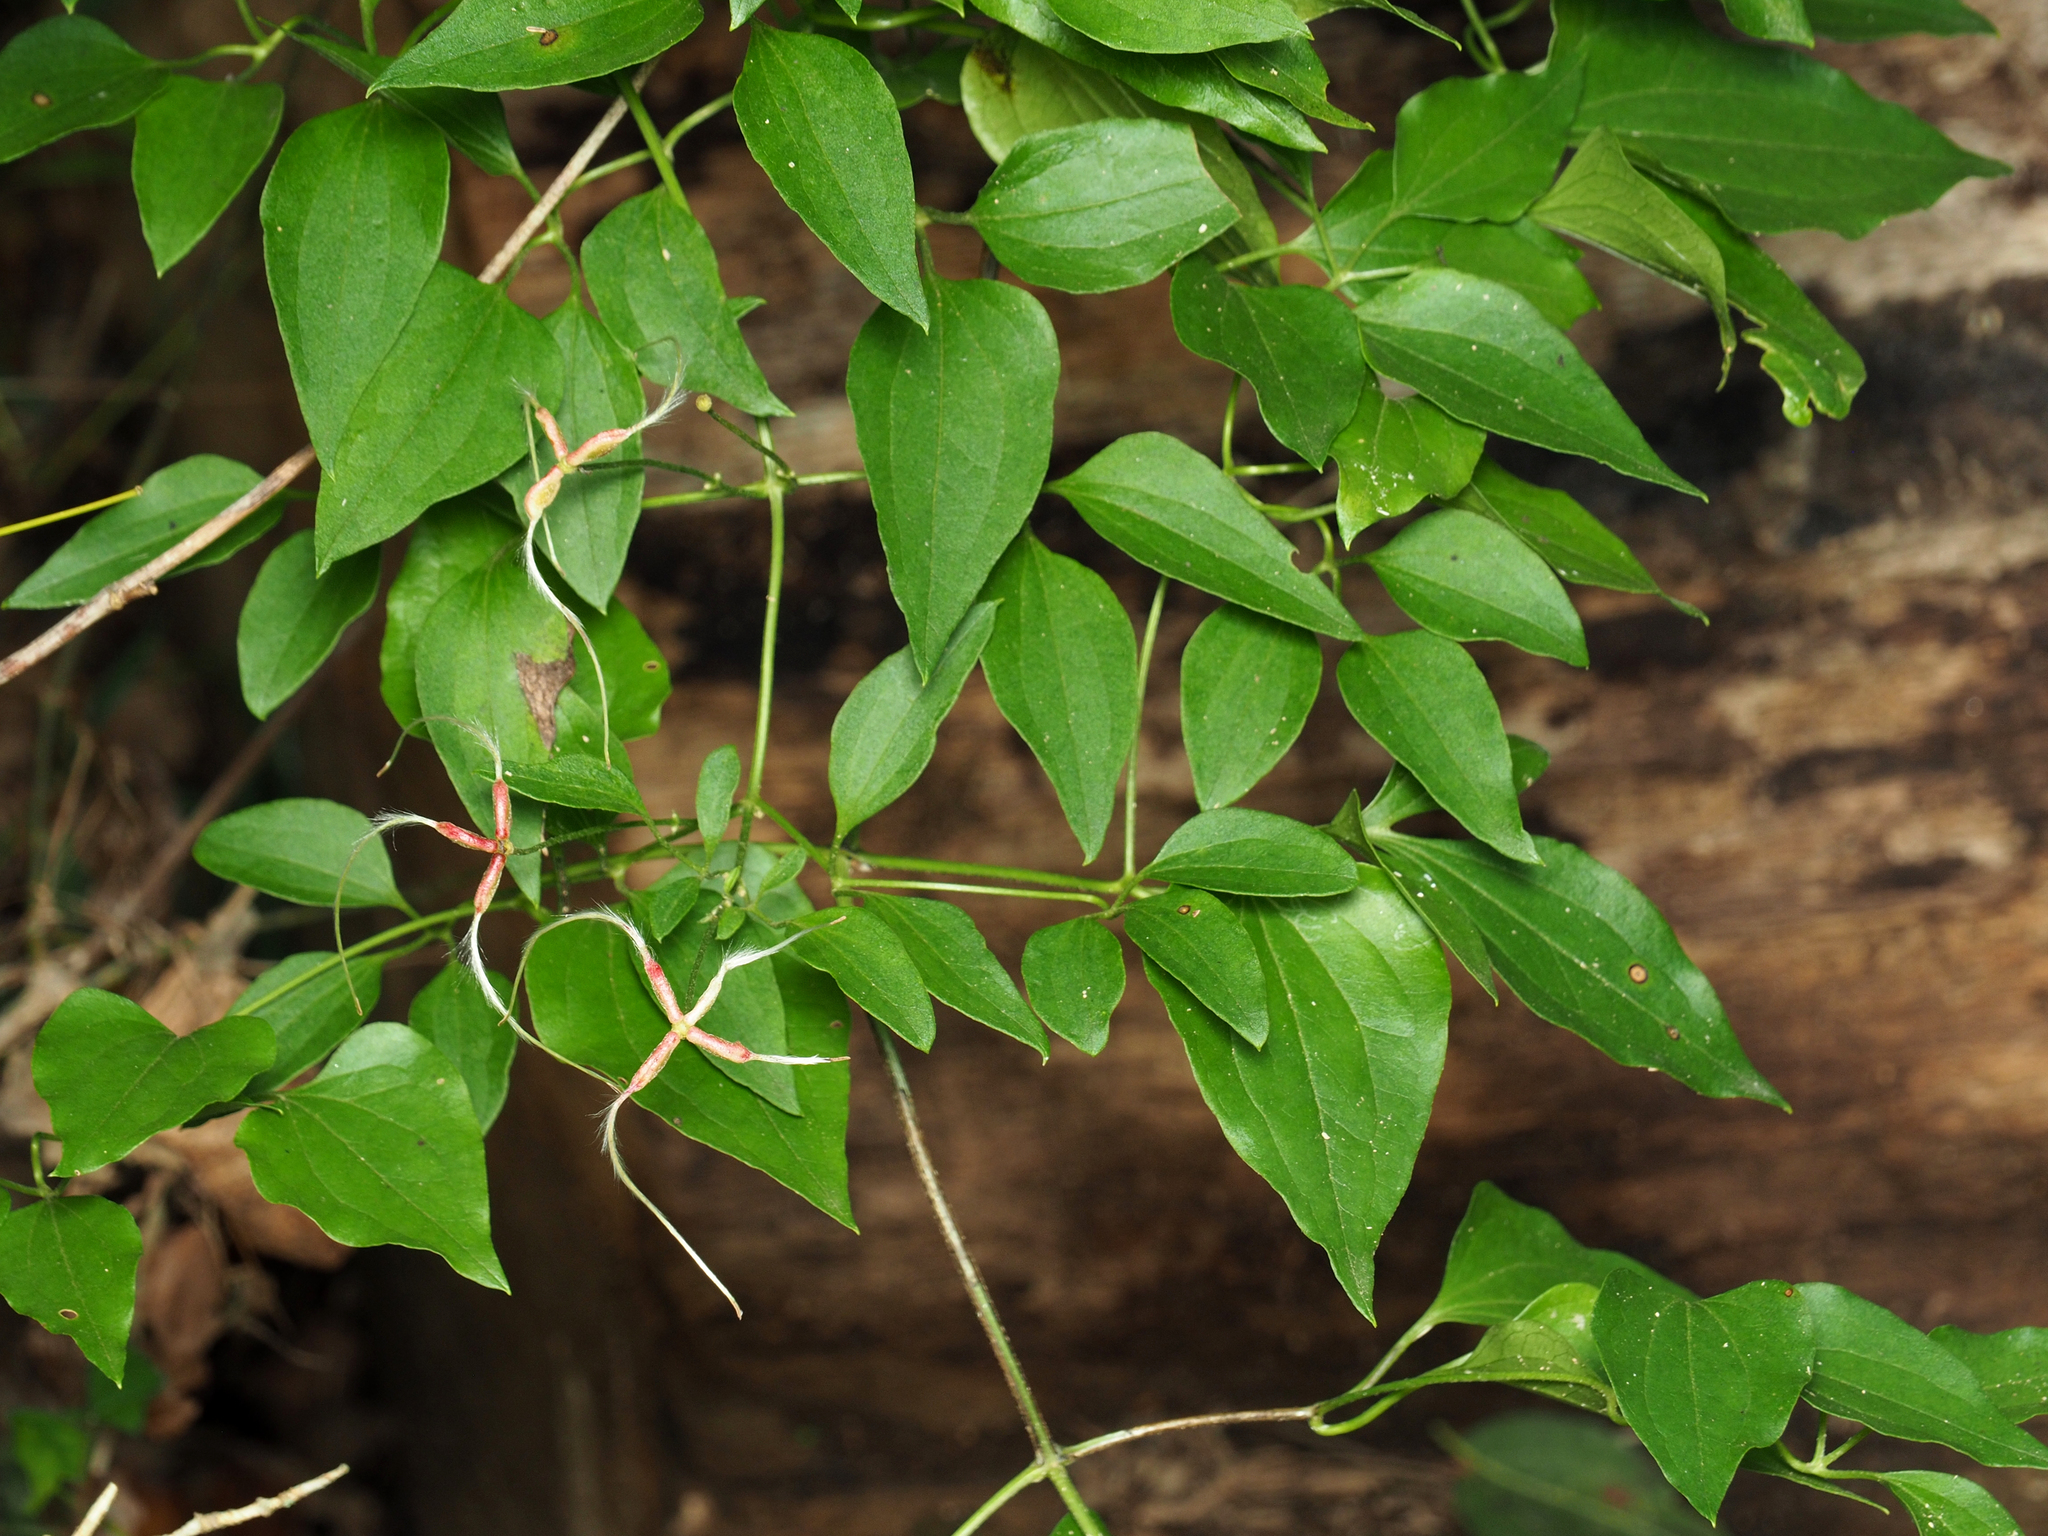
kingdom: Plantae
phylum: Tracheophyta
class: Magnoliopsida
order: Ranunculales
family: Ranunculaceae
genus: Clematis
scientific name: Clematis terniflora
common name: Sweet autumn clematis
